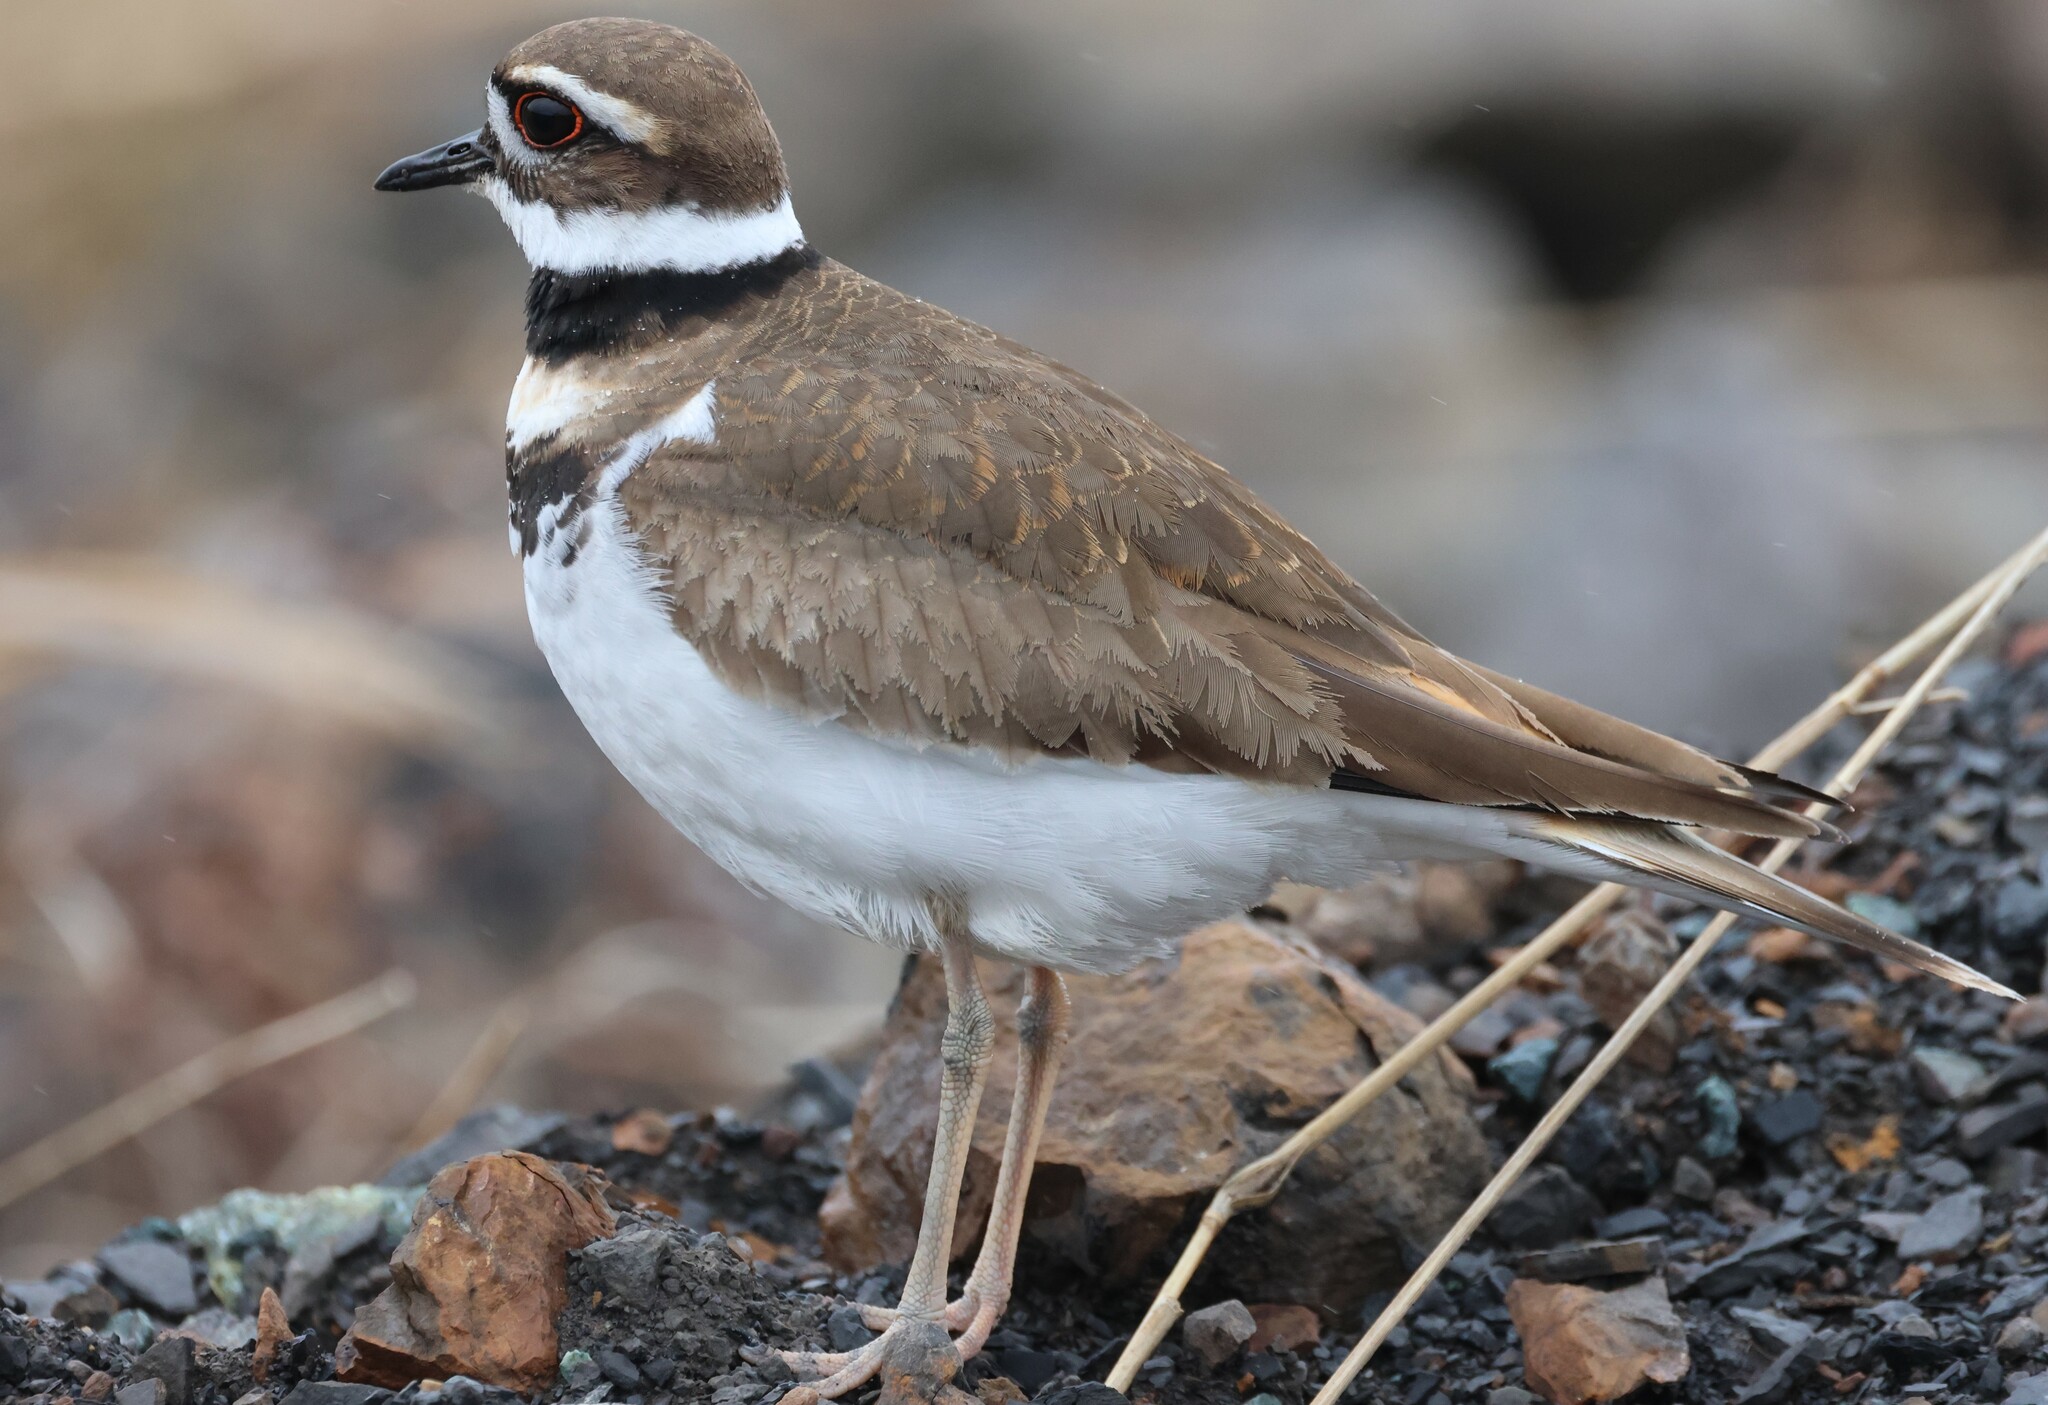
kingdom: Animalia
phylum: Chordata
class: Aves
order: Charadriiformes
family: Charadriidae
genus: Charadrius
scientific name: Charadrius vociferus
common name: Killdeer
